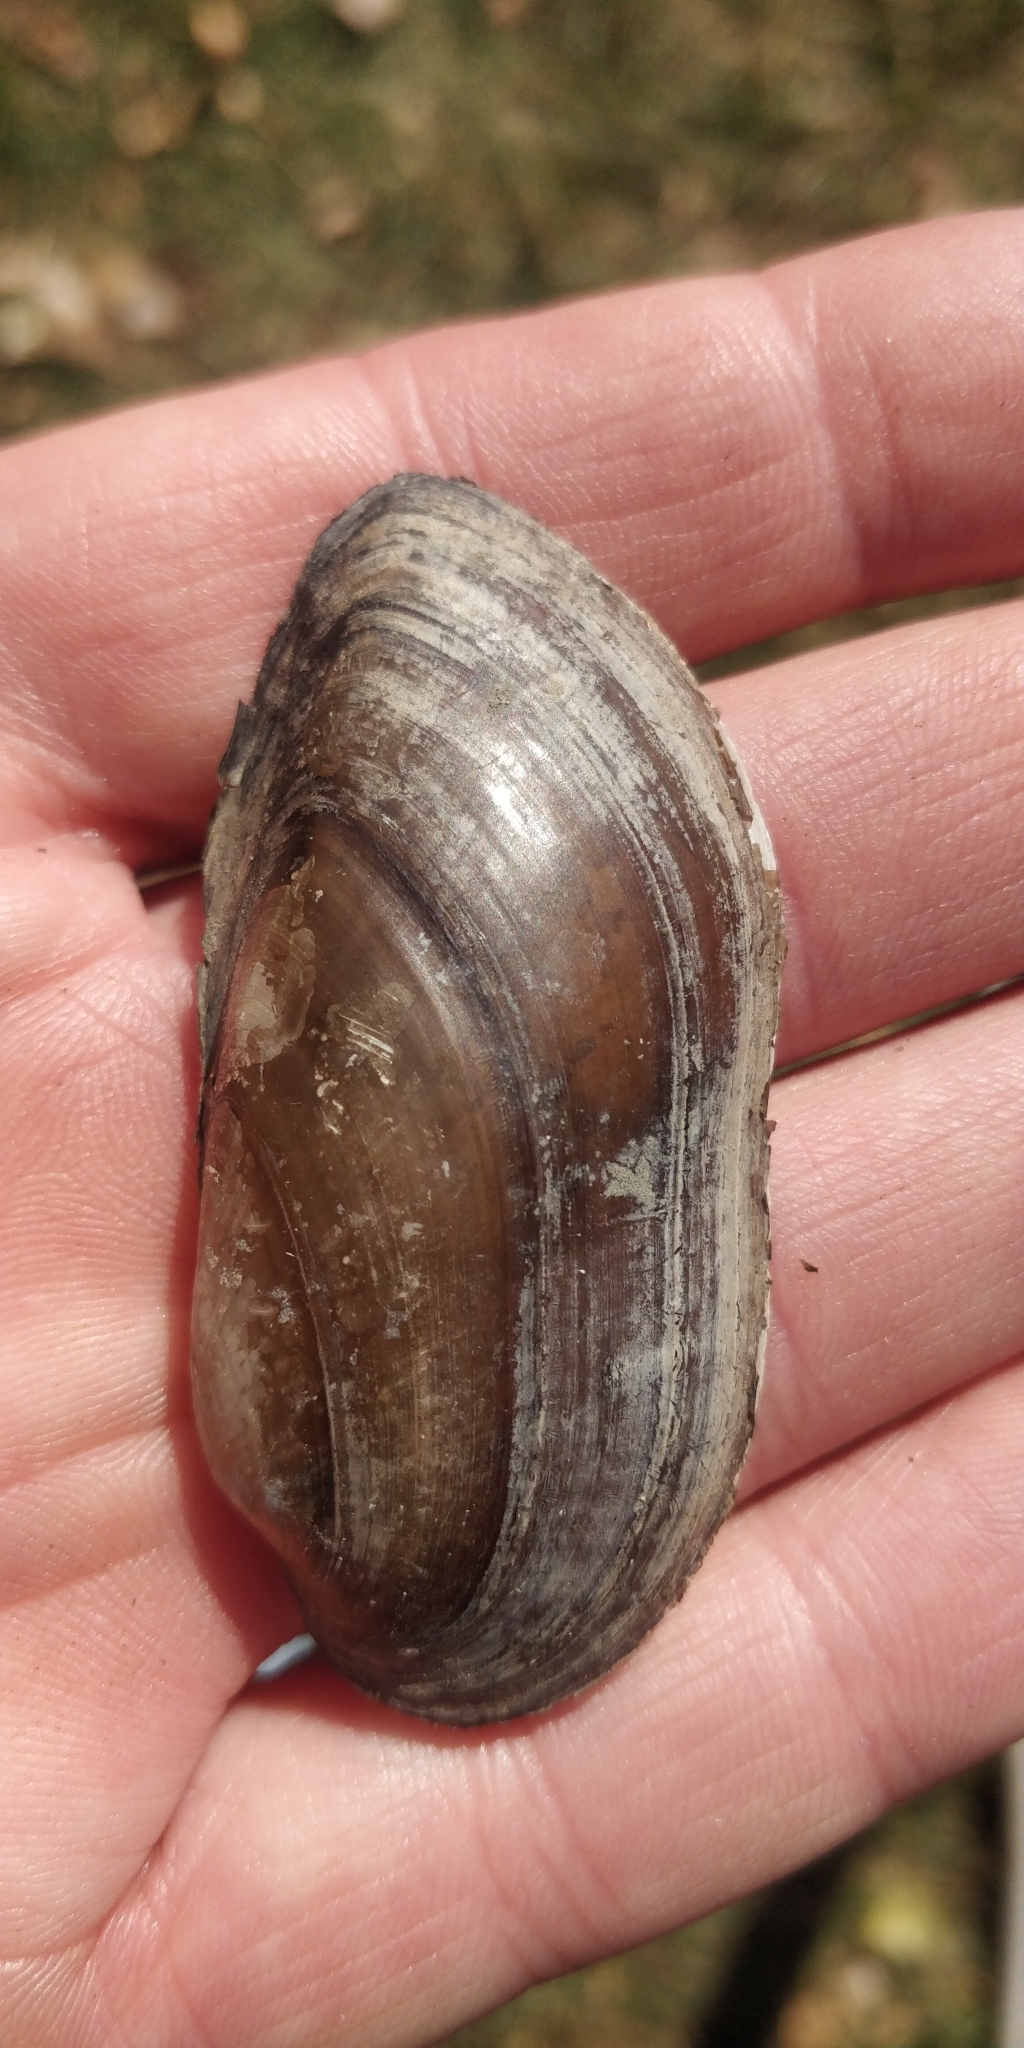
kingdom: Animalia
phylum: Mollusca
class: Bivalvia
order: Unionida
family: Unionidae
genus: Lampsilis
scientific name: Lampsilis teres
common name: Yellow sandshell
